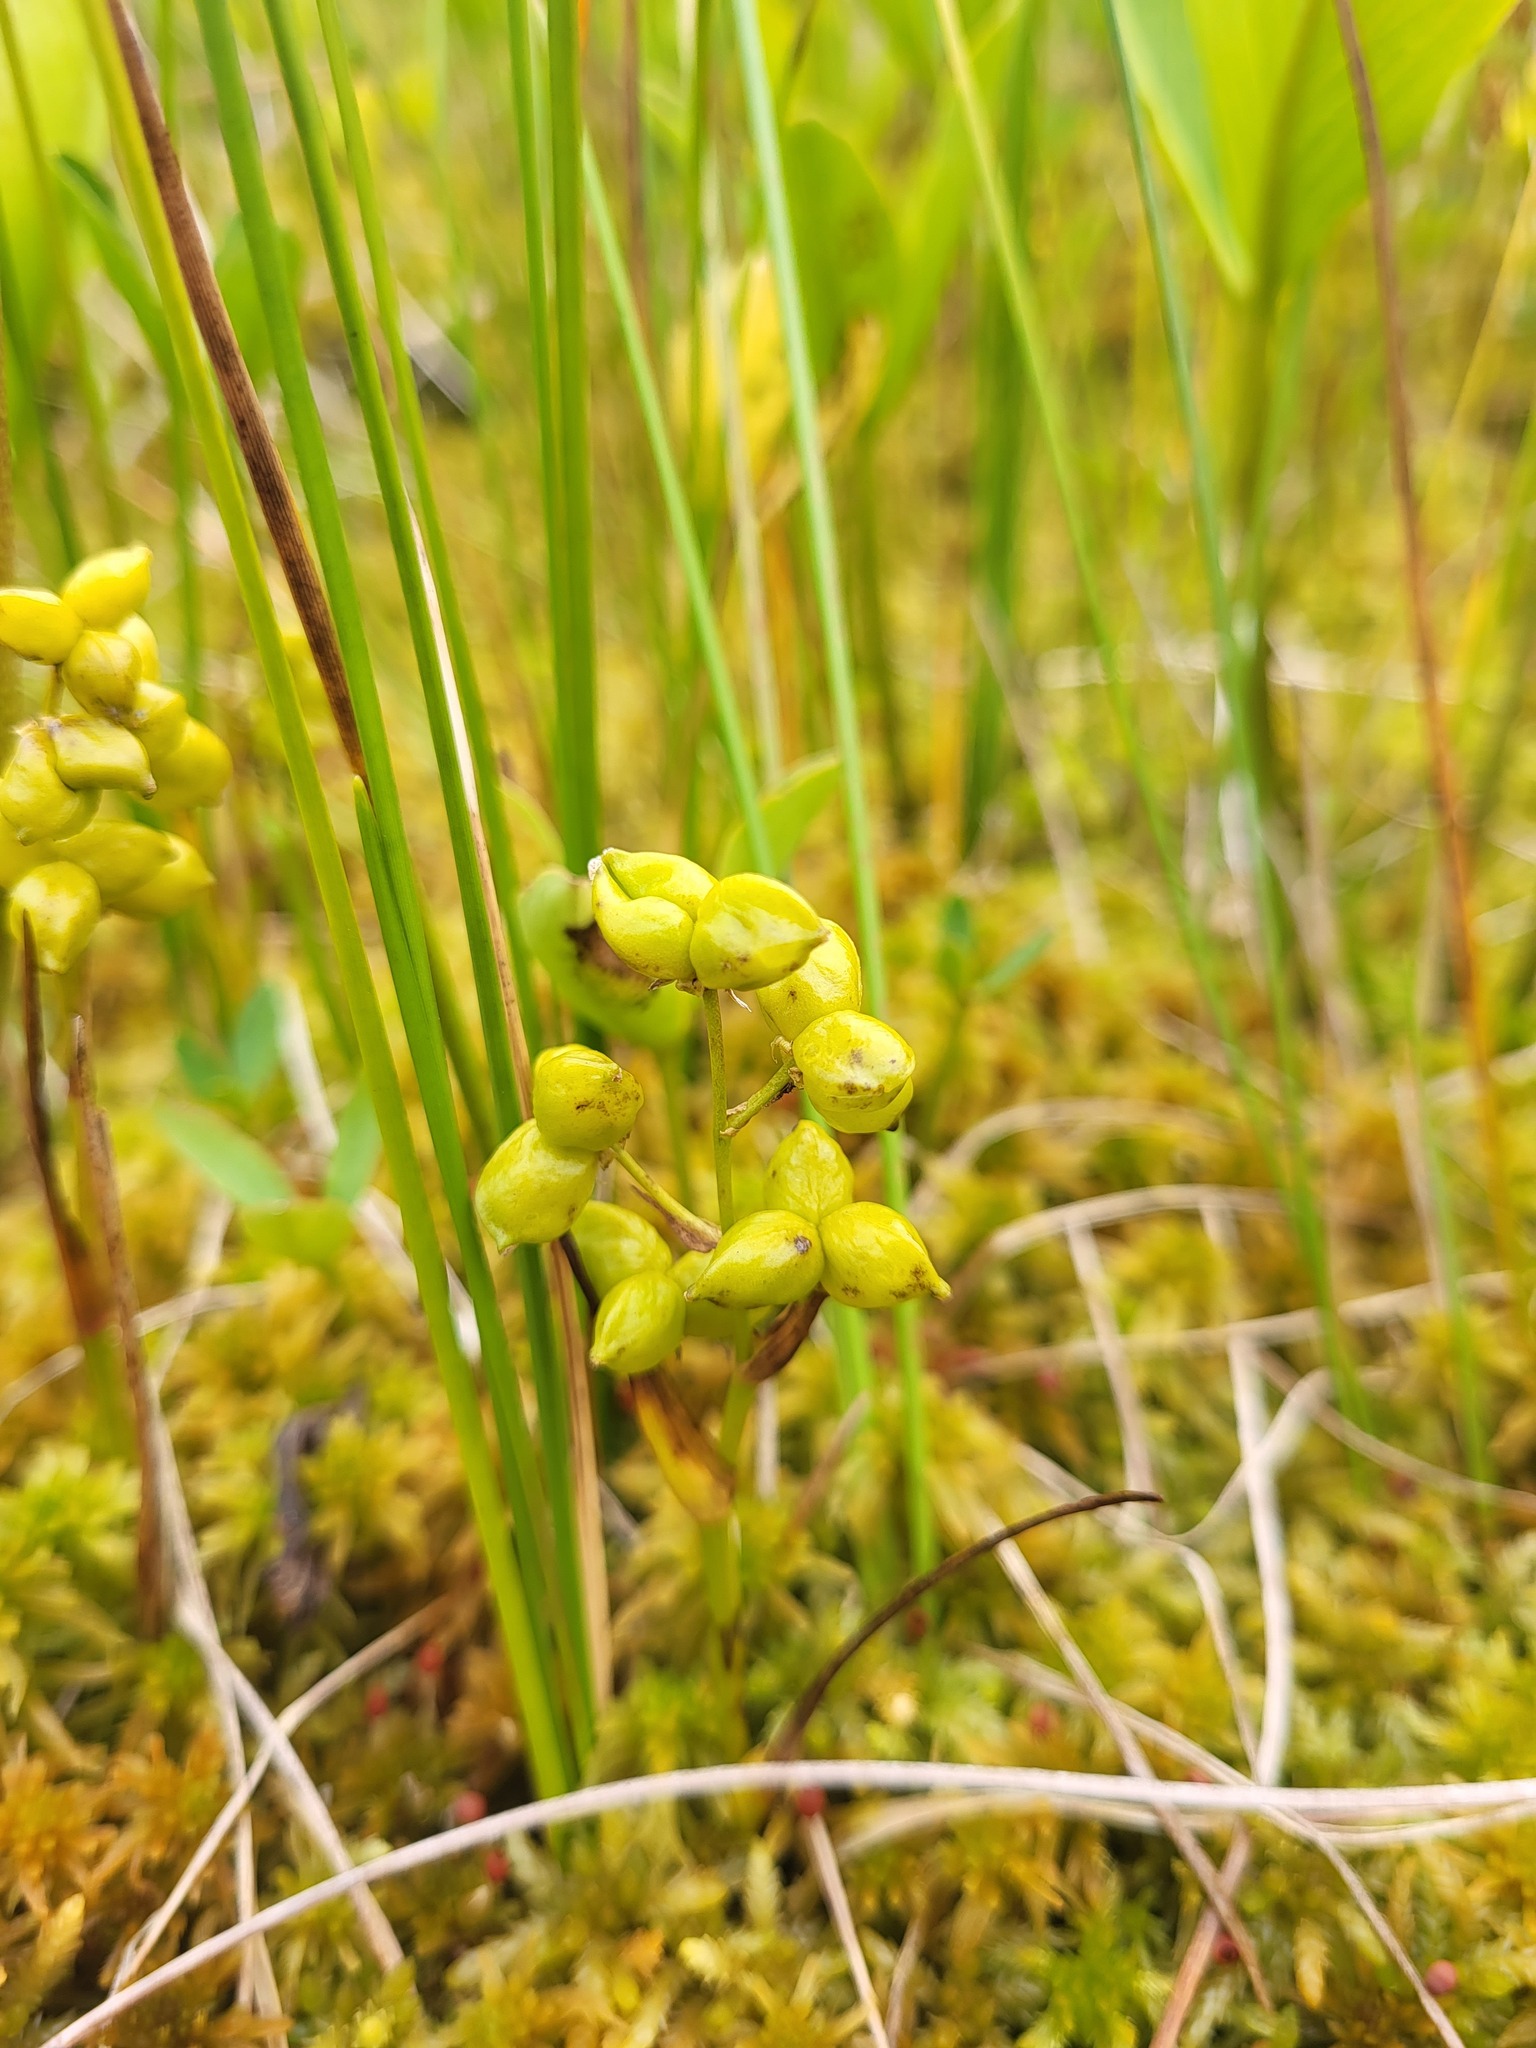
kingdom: Plantae
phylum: Tracheophyta
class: Liliopsida
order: Alismatales
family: Scheuchzeriaceae
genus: Scheuchzeria
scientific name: Scheuchzeria palustris
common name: Rannoch-rush
